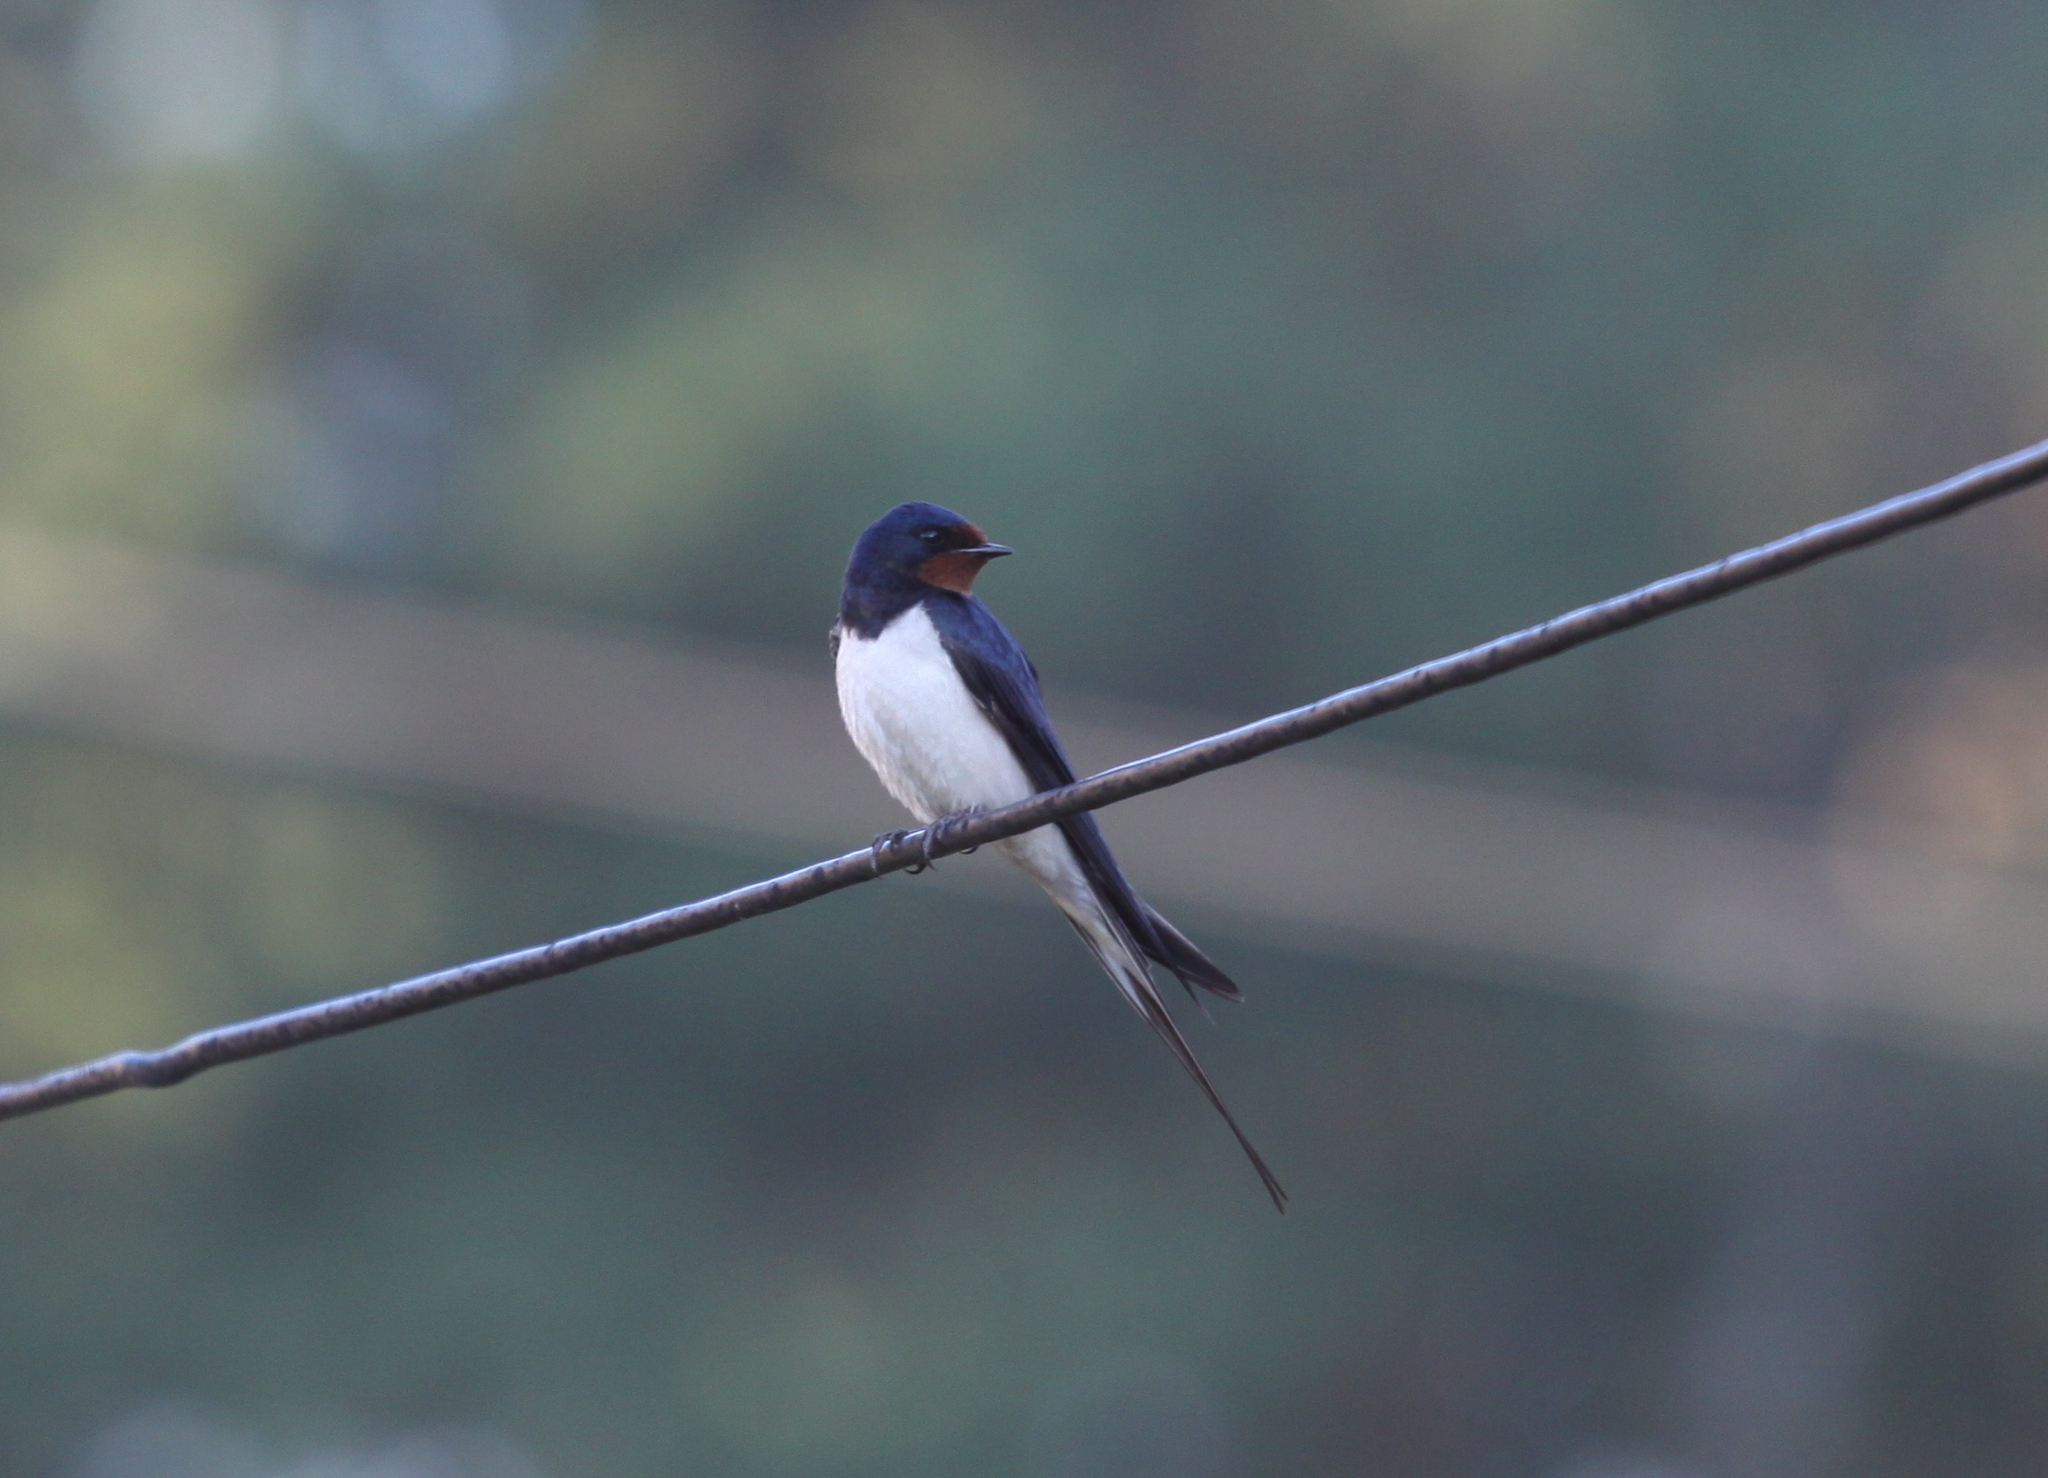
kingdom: Animalia
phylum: Chordata
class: Aves
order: Passeriformes
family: Hirundinidae
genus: Hirundo
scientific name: Hirundo rustica
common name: Barn swallow
